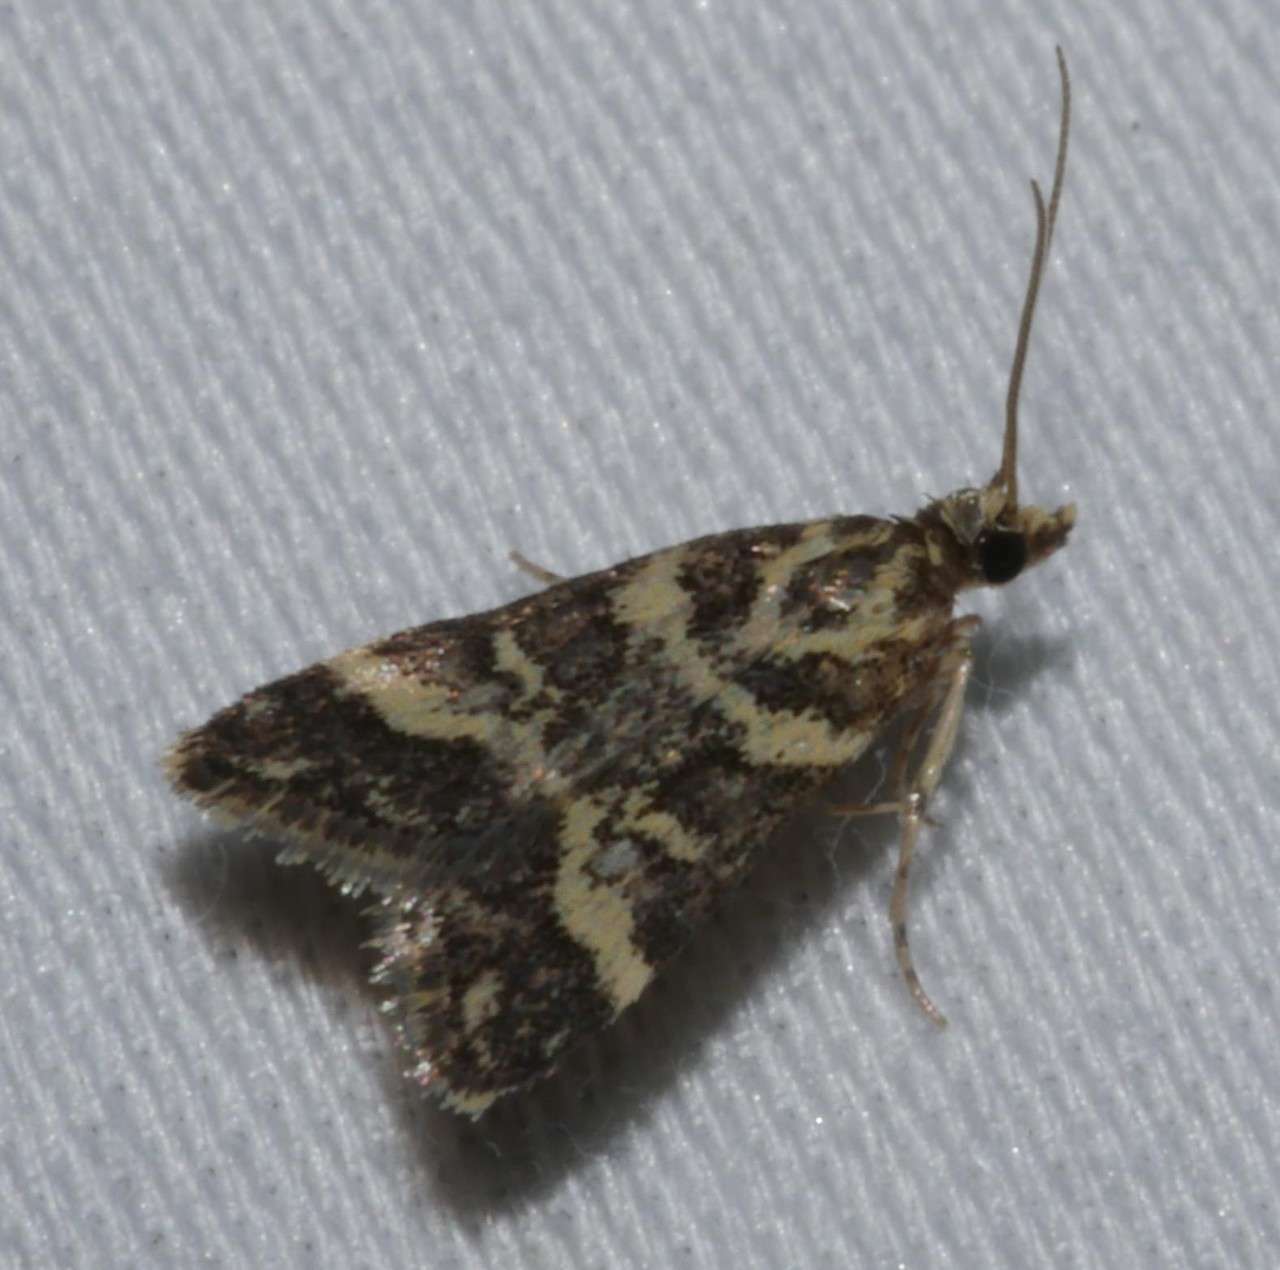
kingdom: Animalia
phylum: Arthropoda
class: Insecta
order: Lepidoptera
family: Crambidae
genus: Scoparia
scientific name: Scoparia spelaea
